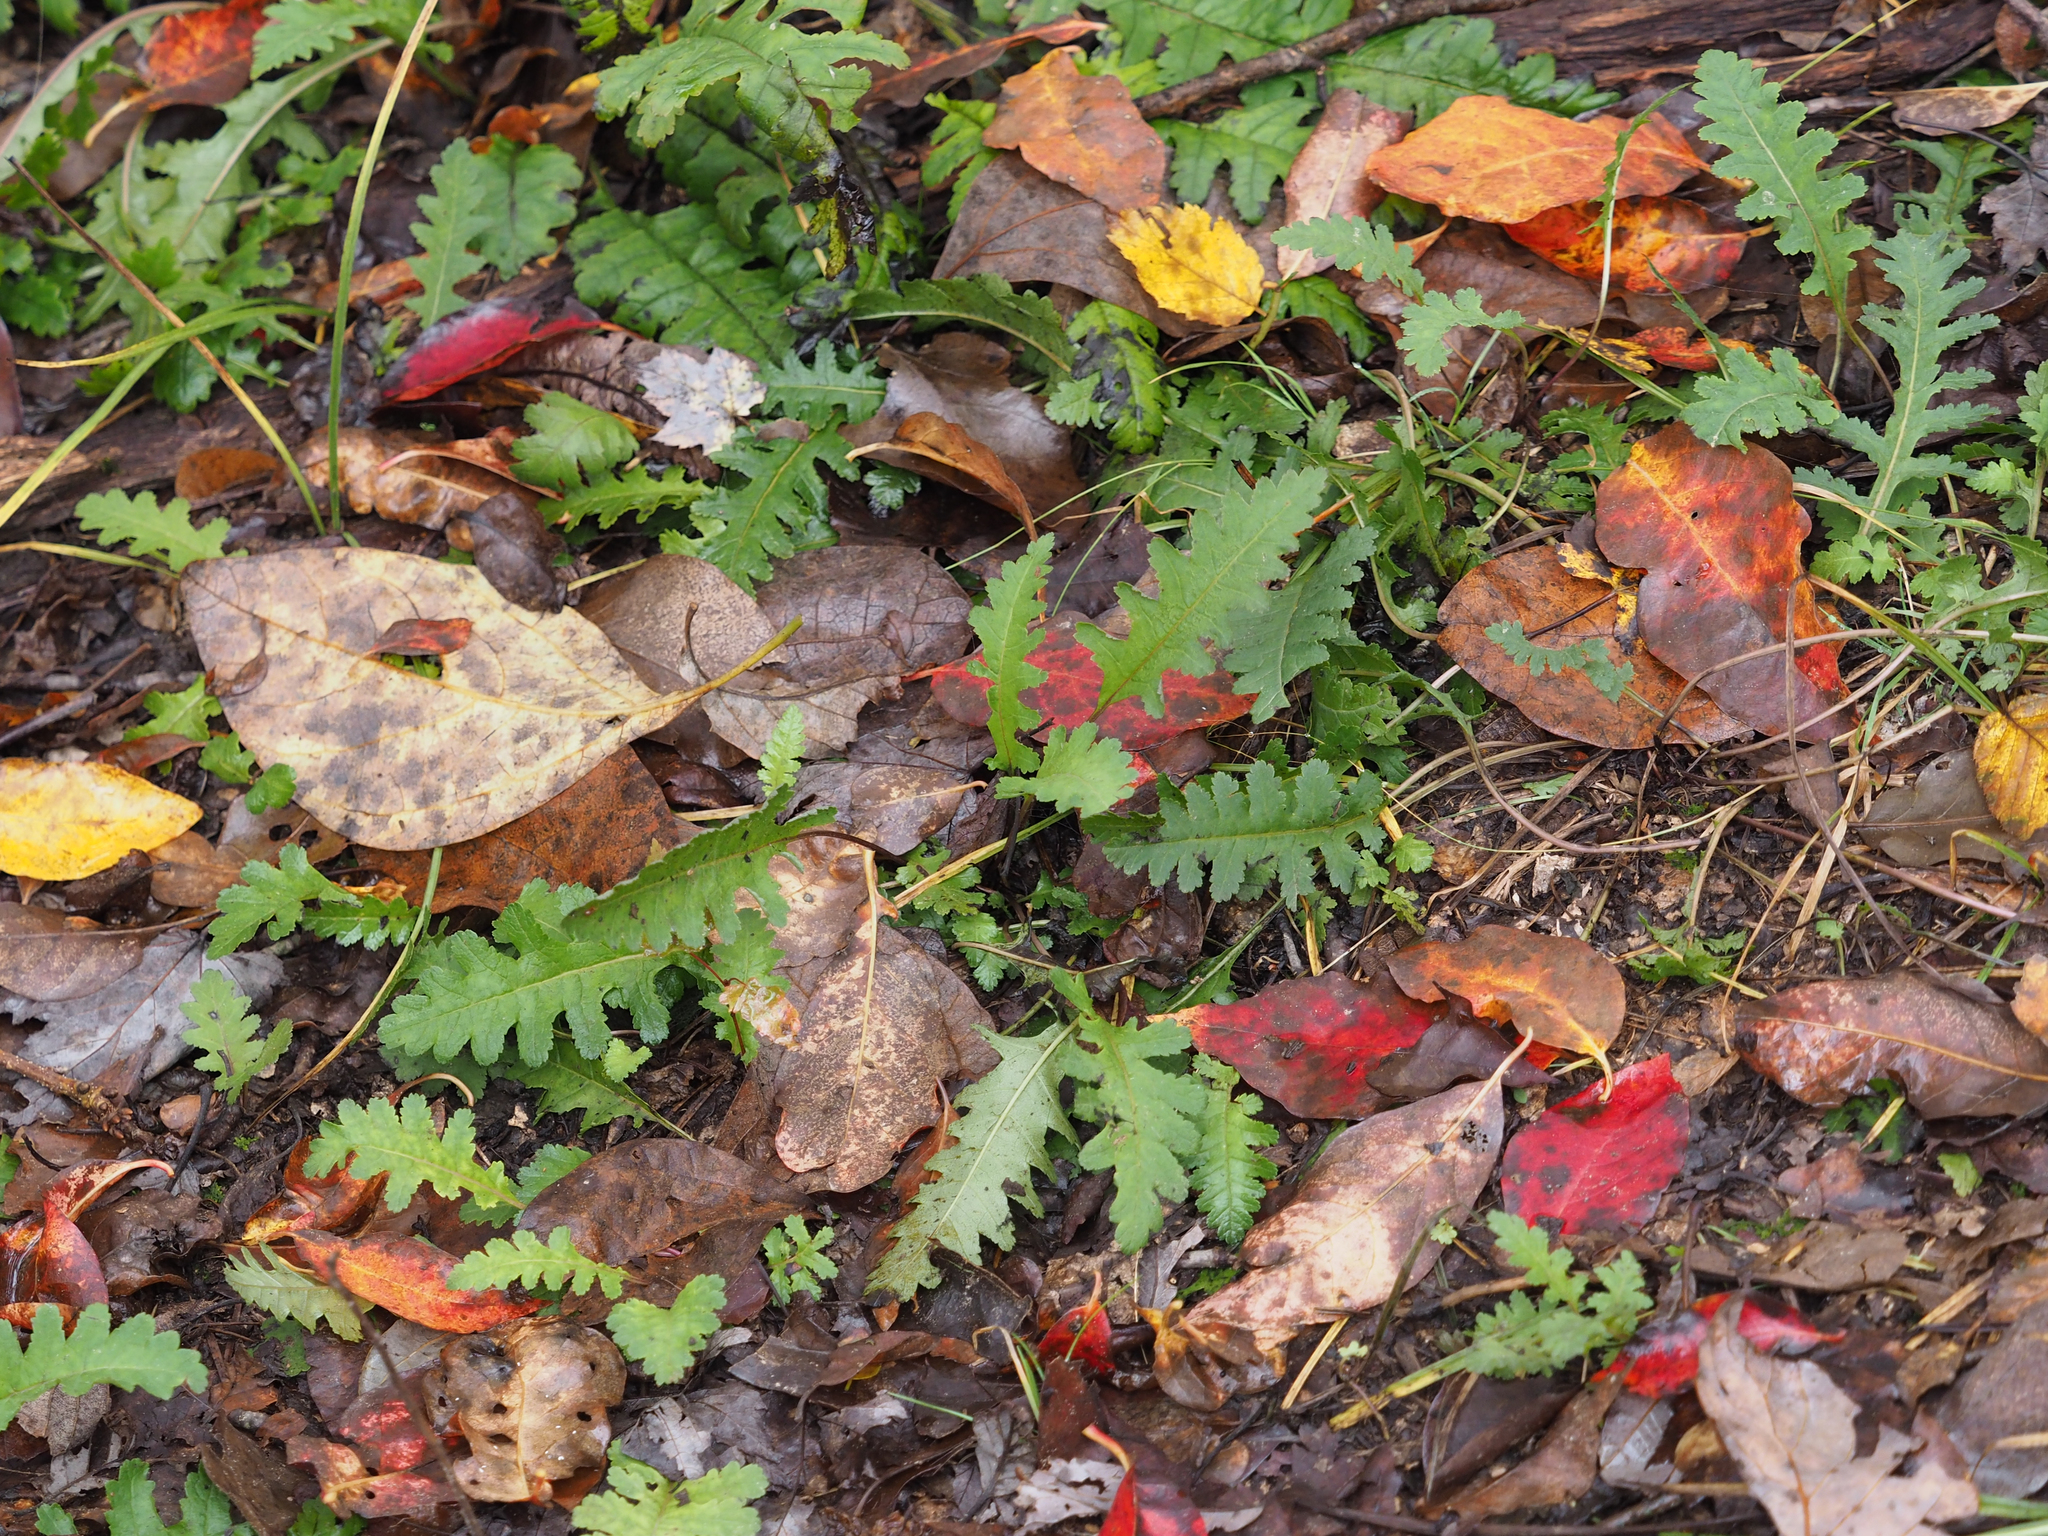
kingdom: Plantae
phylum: Tracheophyta
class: Magnoliopsida
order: Lamiales
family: Orobanchaceae
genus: Pedicularis
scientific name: Pedicularis canadensis
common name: Early lousewort
